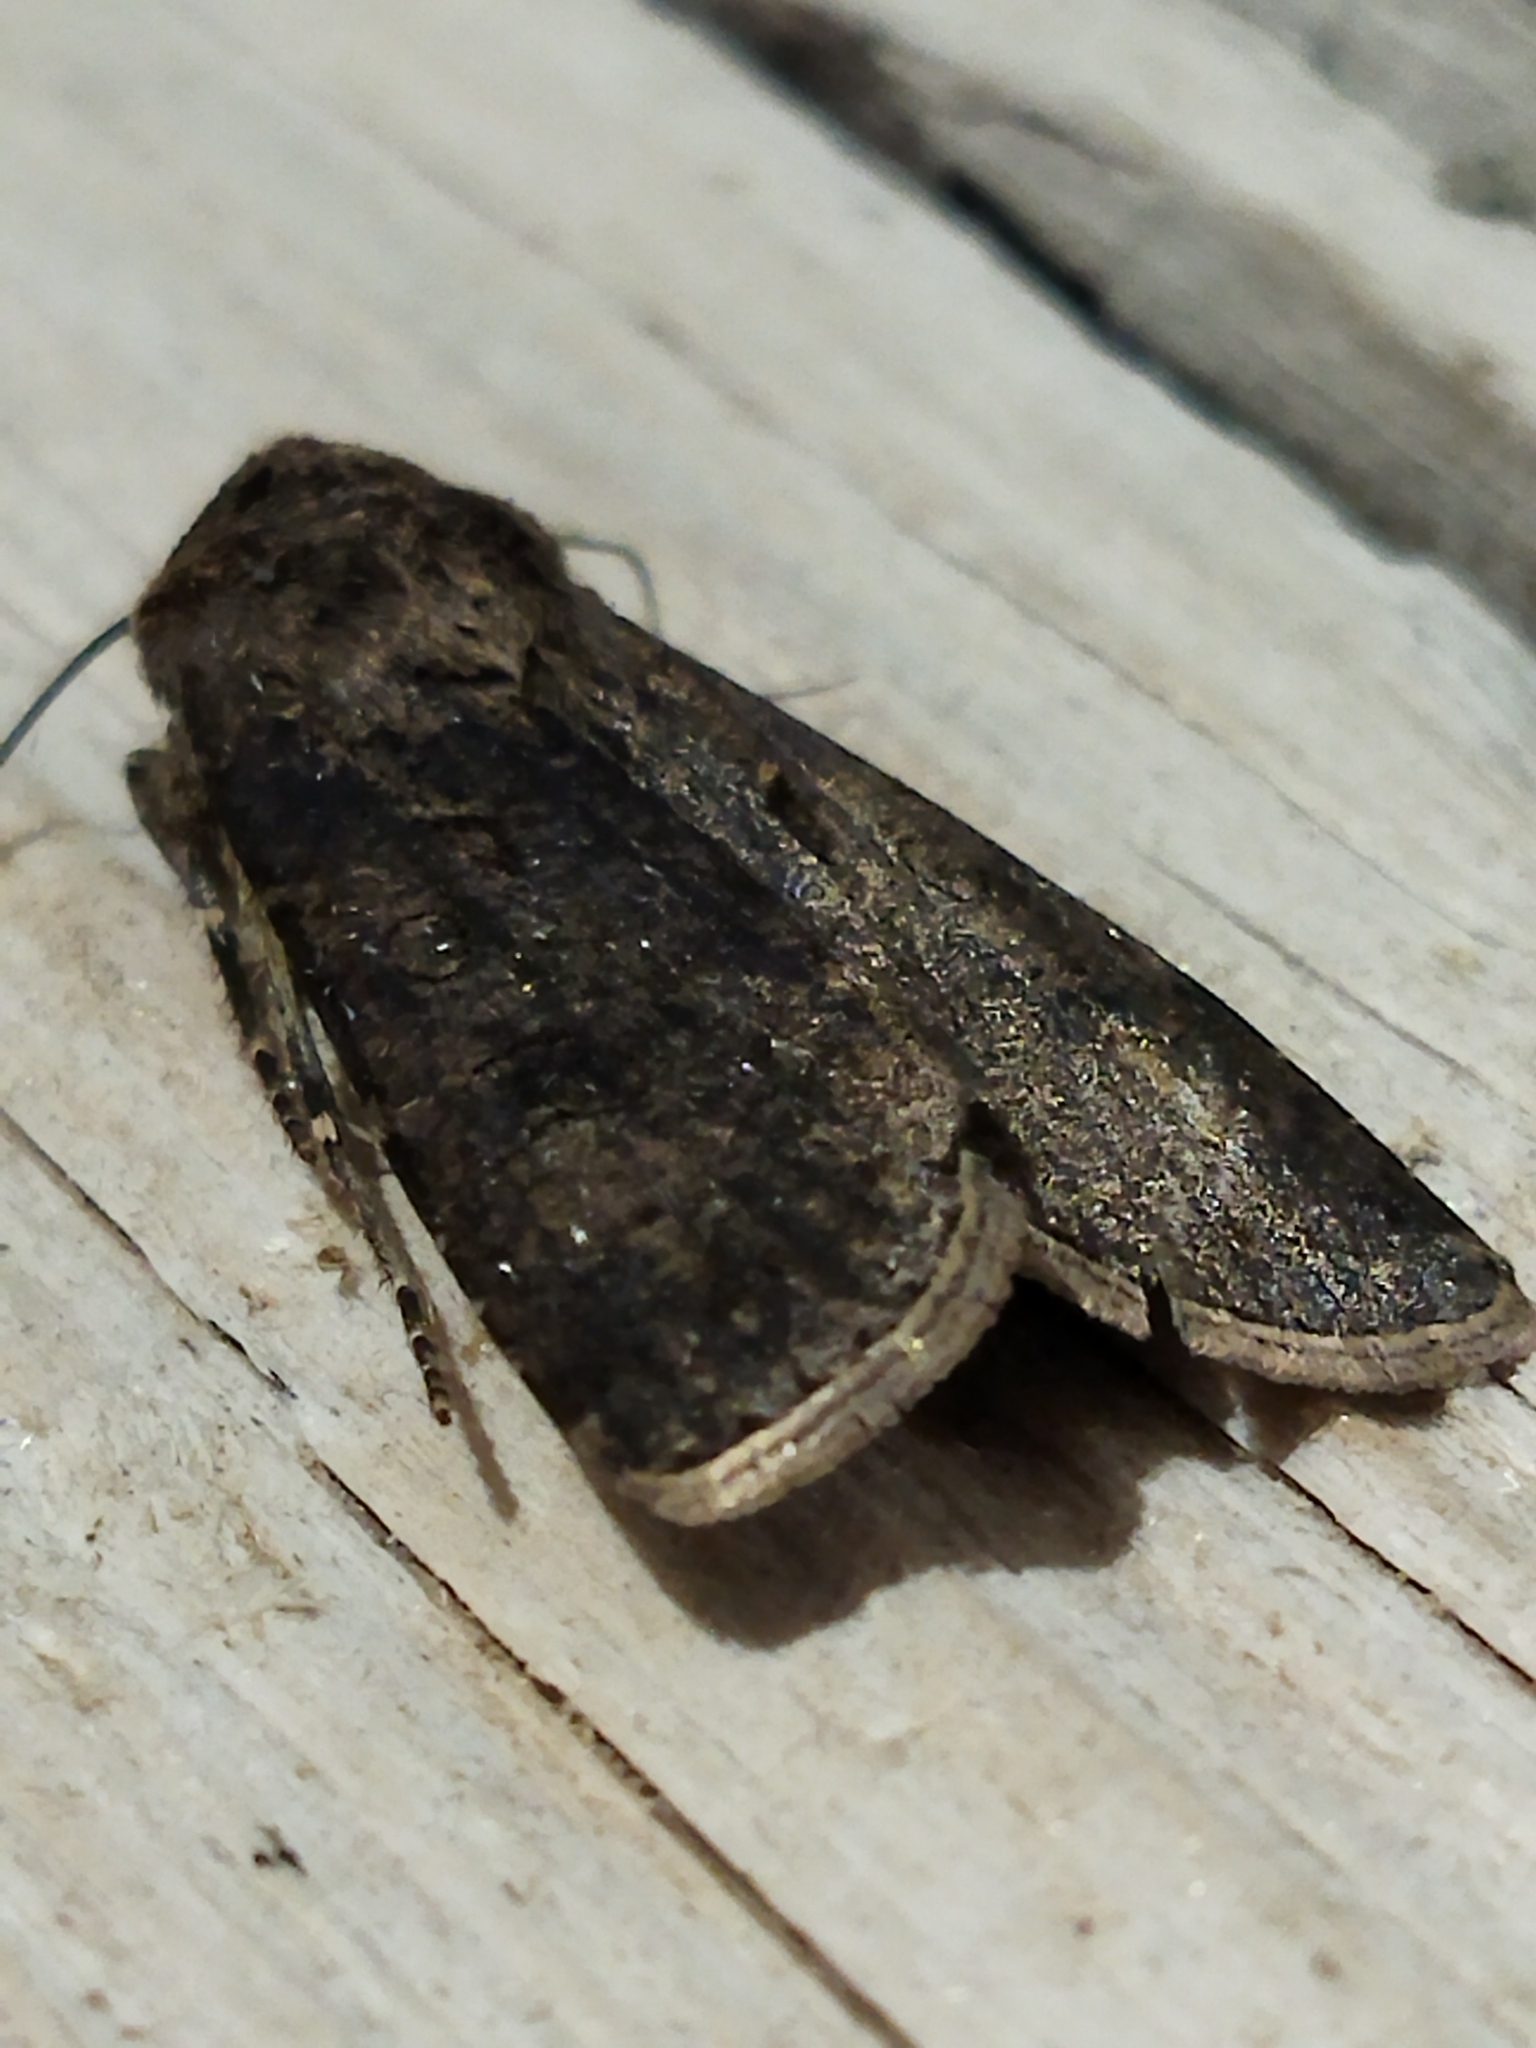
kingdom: Animalia
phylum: Arthropoda
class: Insecta
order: Lepidoptera
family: Noctuidae
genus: Agrotis
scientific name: Agrotis segetum
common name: Turnip moth
